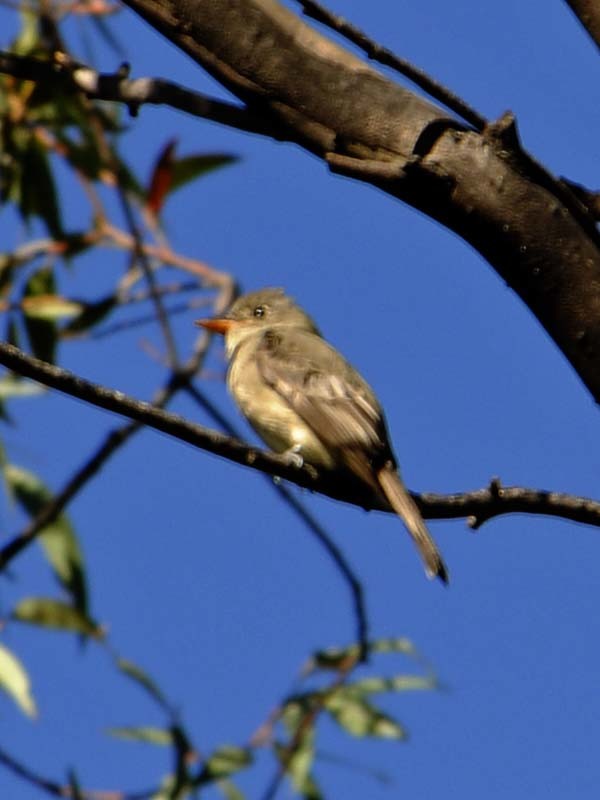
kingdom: Animalia
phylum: Chordata
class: Aves
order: Passeriformes
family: Tyrannidae
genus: Contopus
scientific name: Contopus pertinax
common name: Greater pewee
